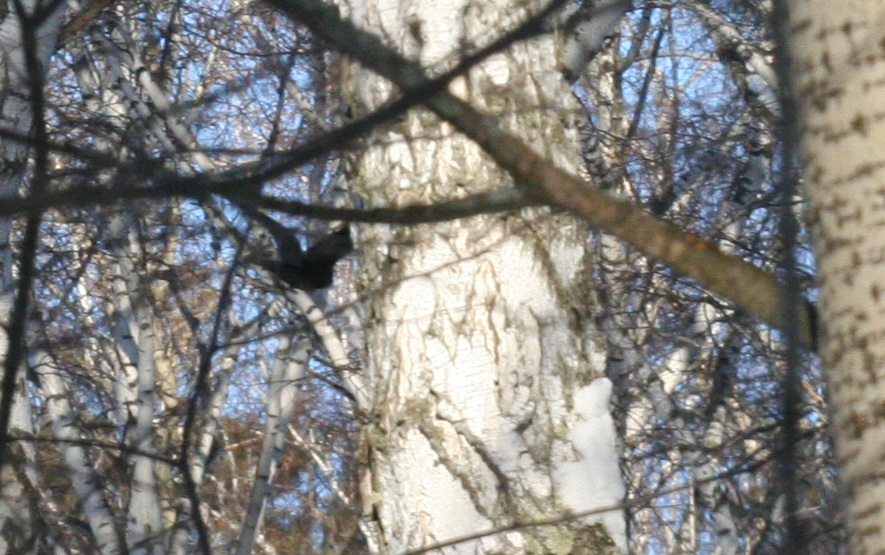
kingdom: Animalia
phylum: Chordata
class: Aves
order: Passeriformes
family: Corvidae
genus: Corvus
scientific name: Corvus corax
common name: Common raven
